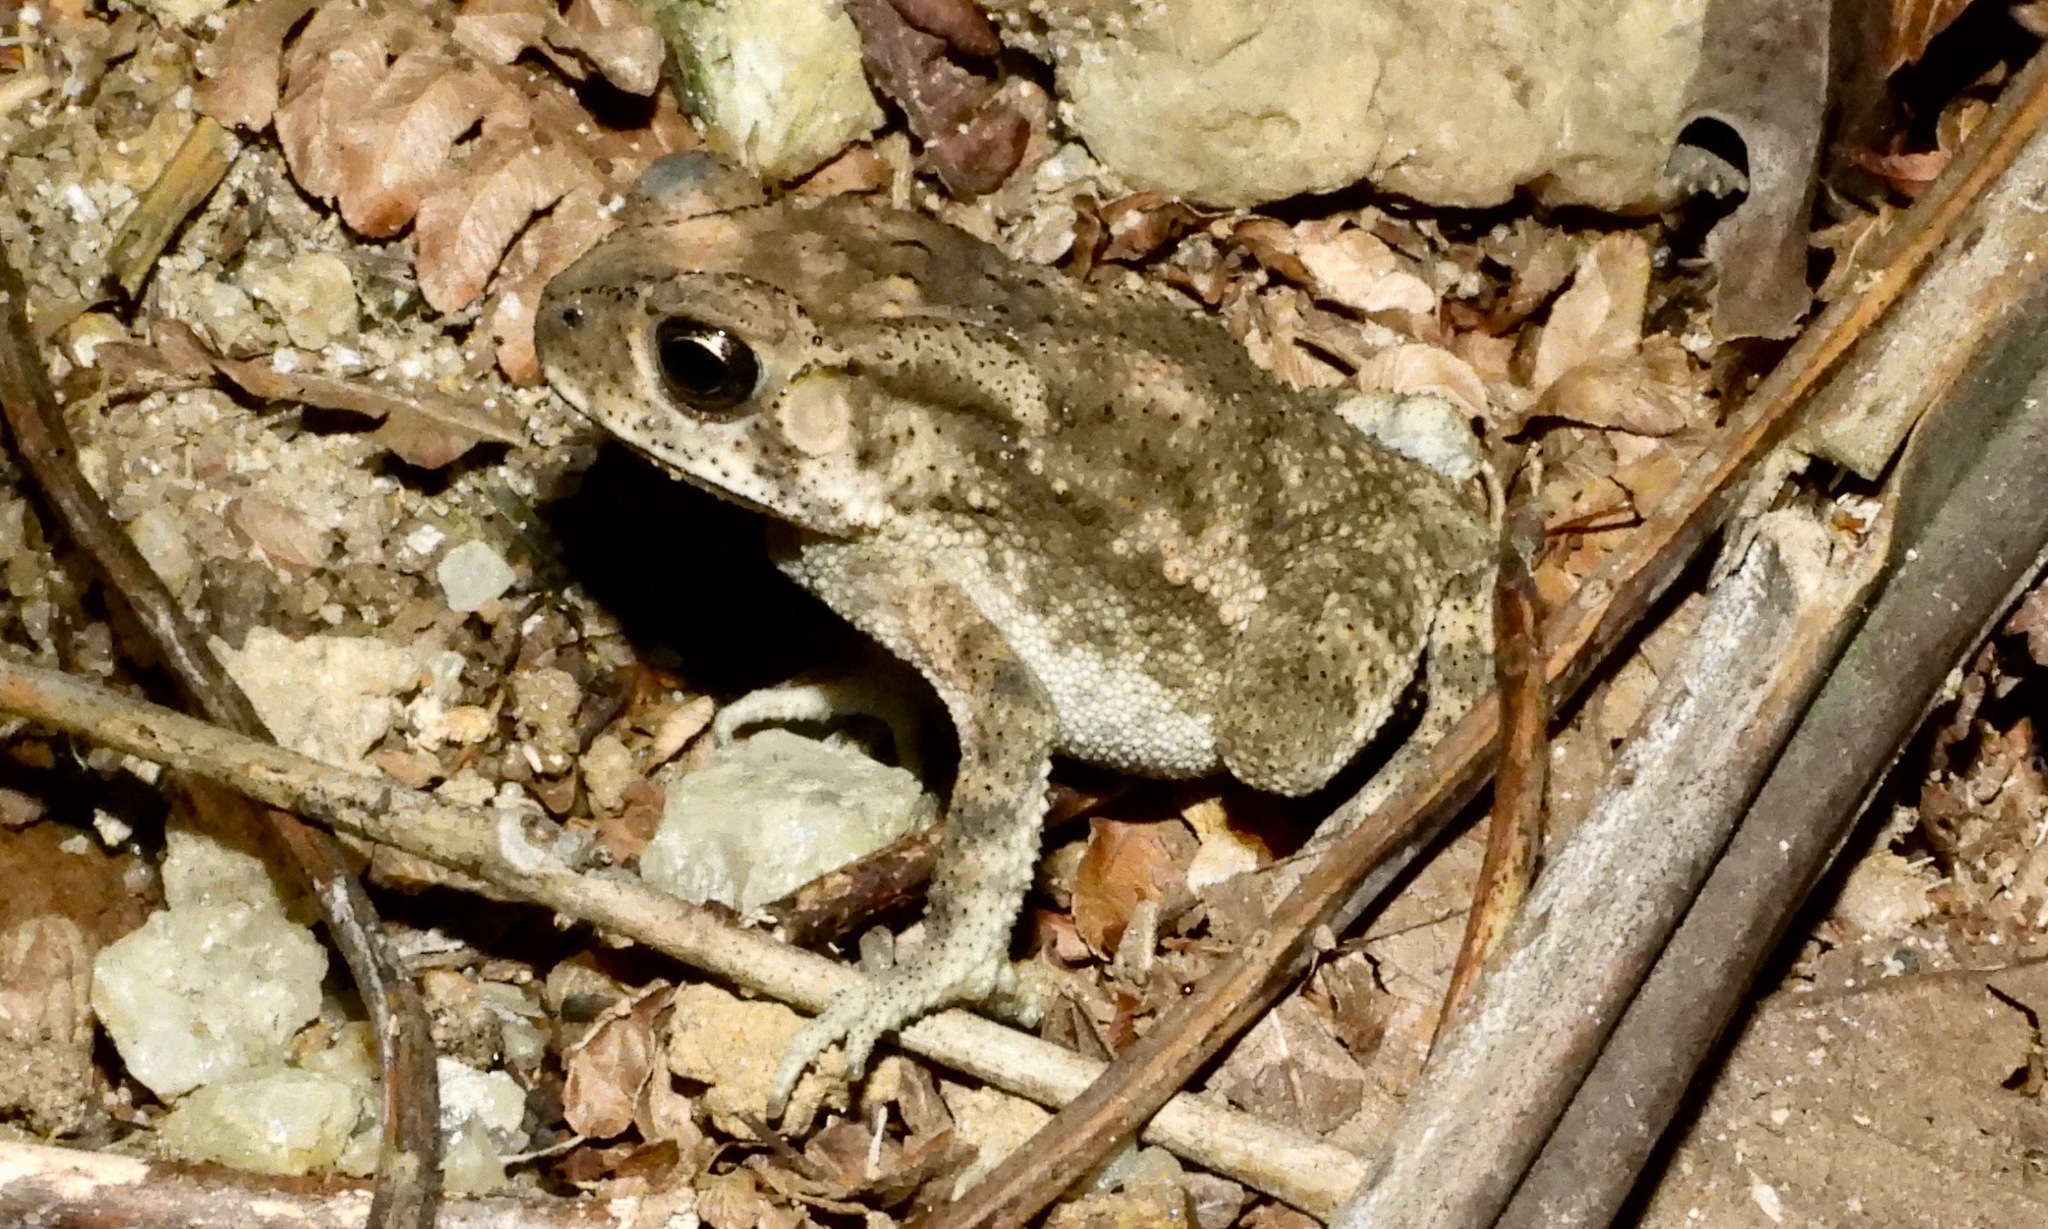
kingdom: Animalia
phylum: Chordata
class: Amphibia
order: Anura
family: Bufonidae
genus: Duttaphrynus
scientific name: Duttaphrynus melanostictus
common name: Common sunda toad
